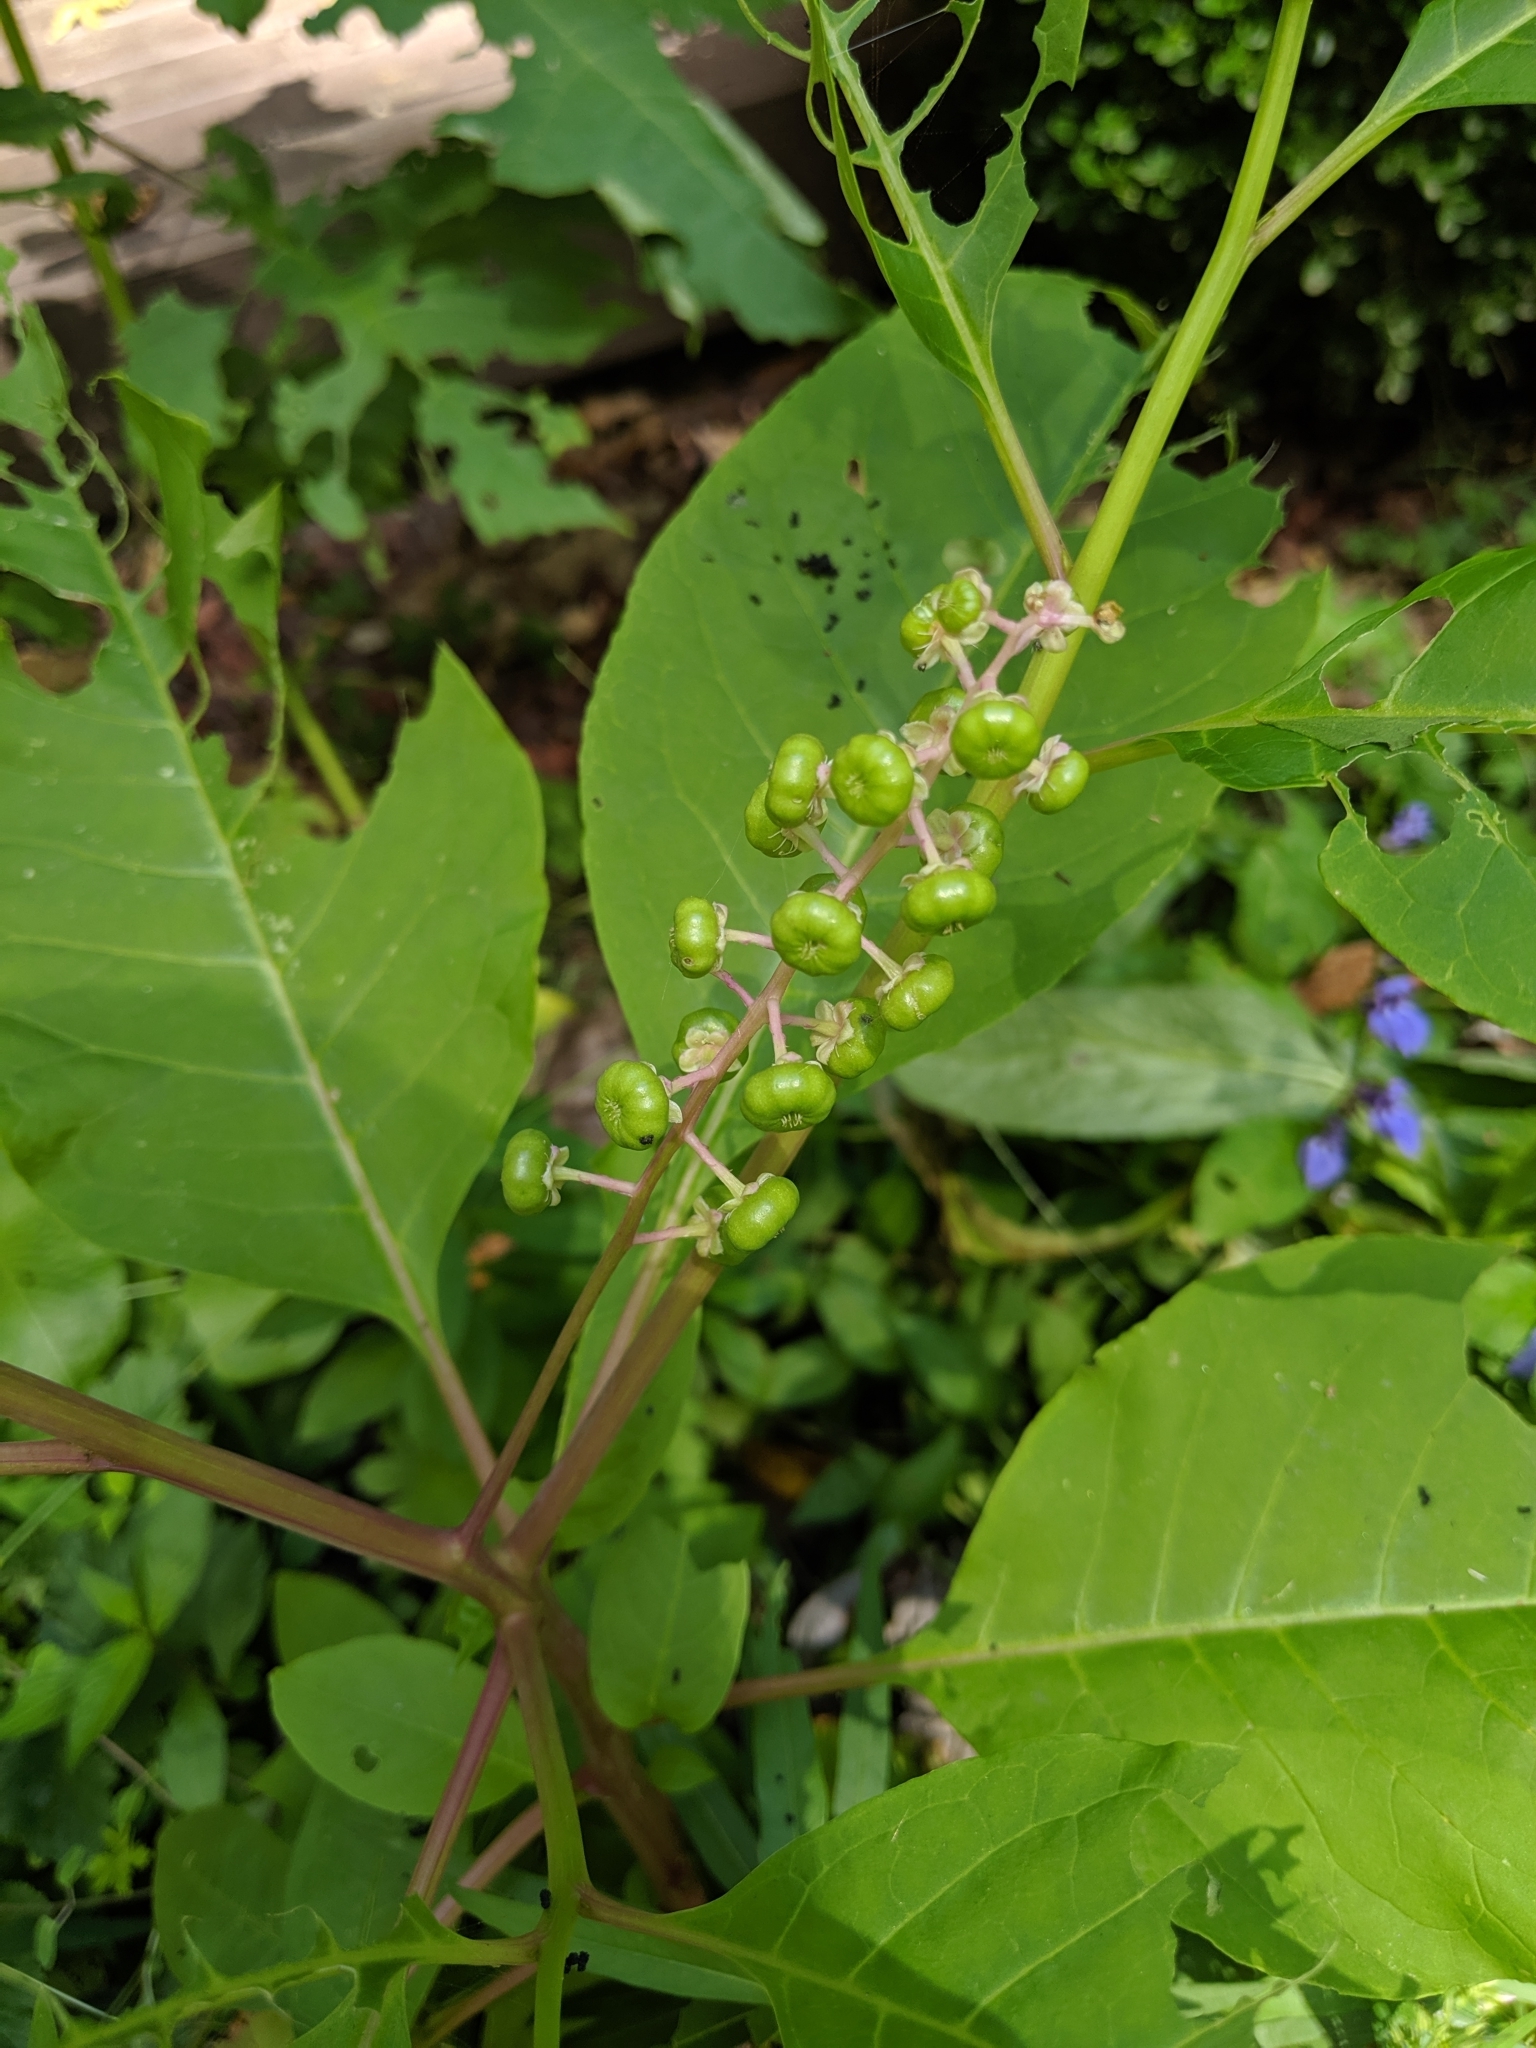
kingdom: Plantae
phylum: Tracheophyta
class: Magnoliopsida
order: Caryophyllales
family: Phytolaccaceae
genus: Phytolacca
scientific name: Phytolacca americana
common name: American pokeweed
